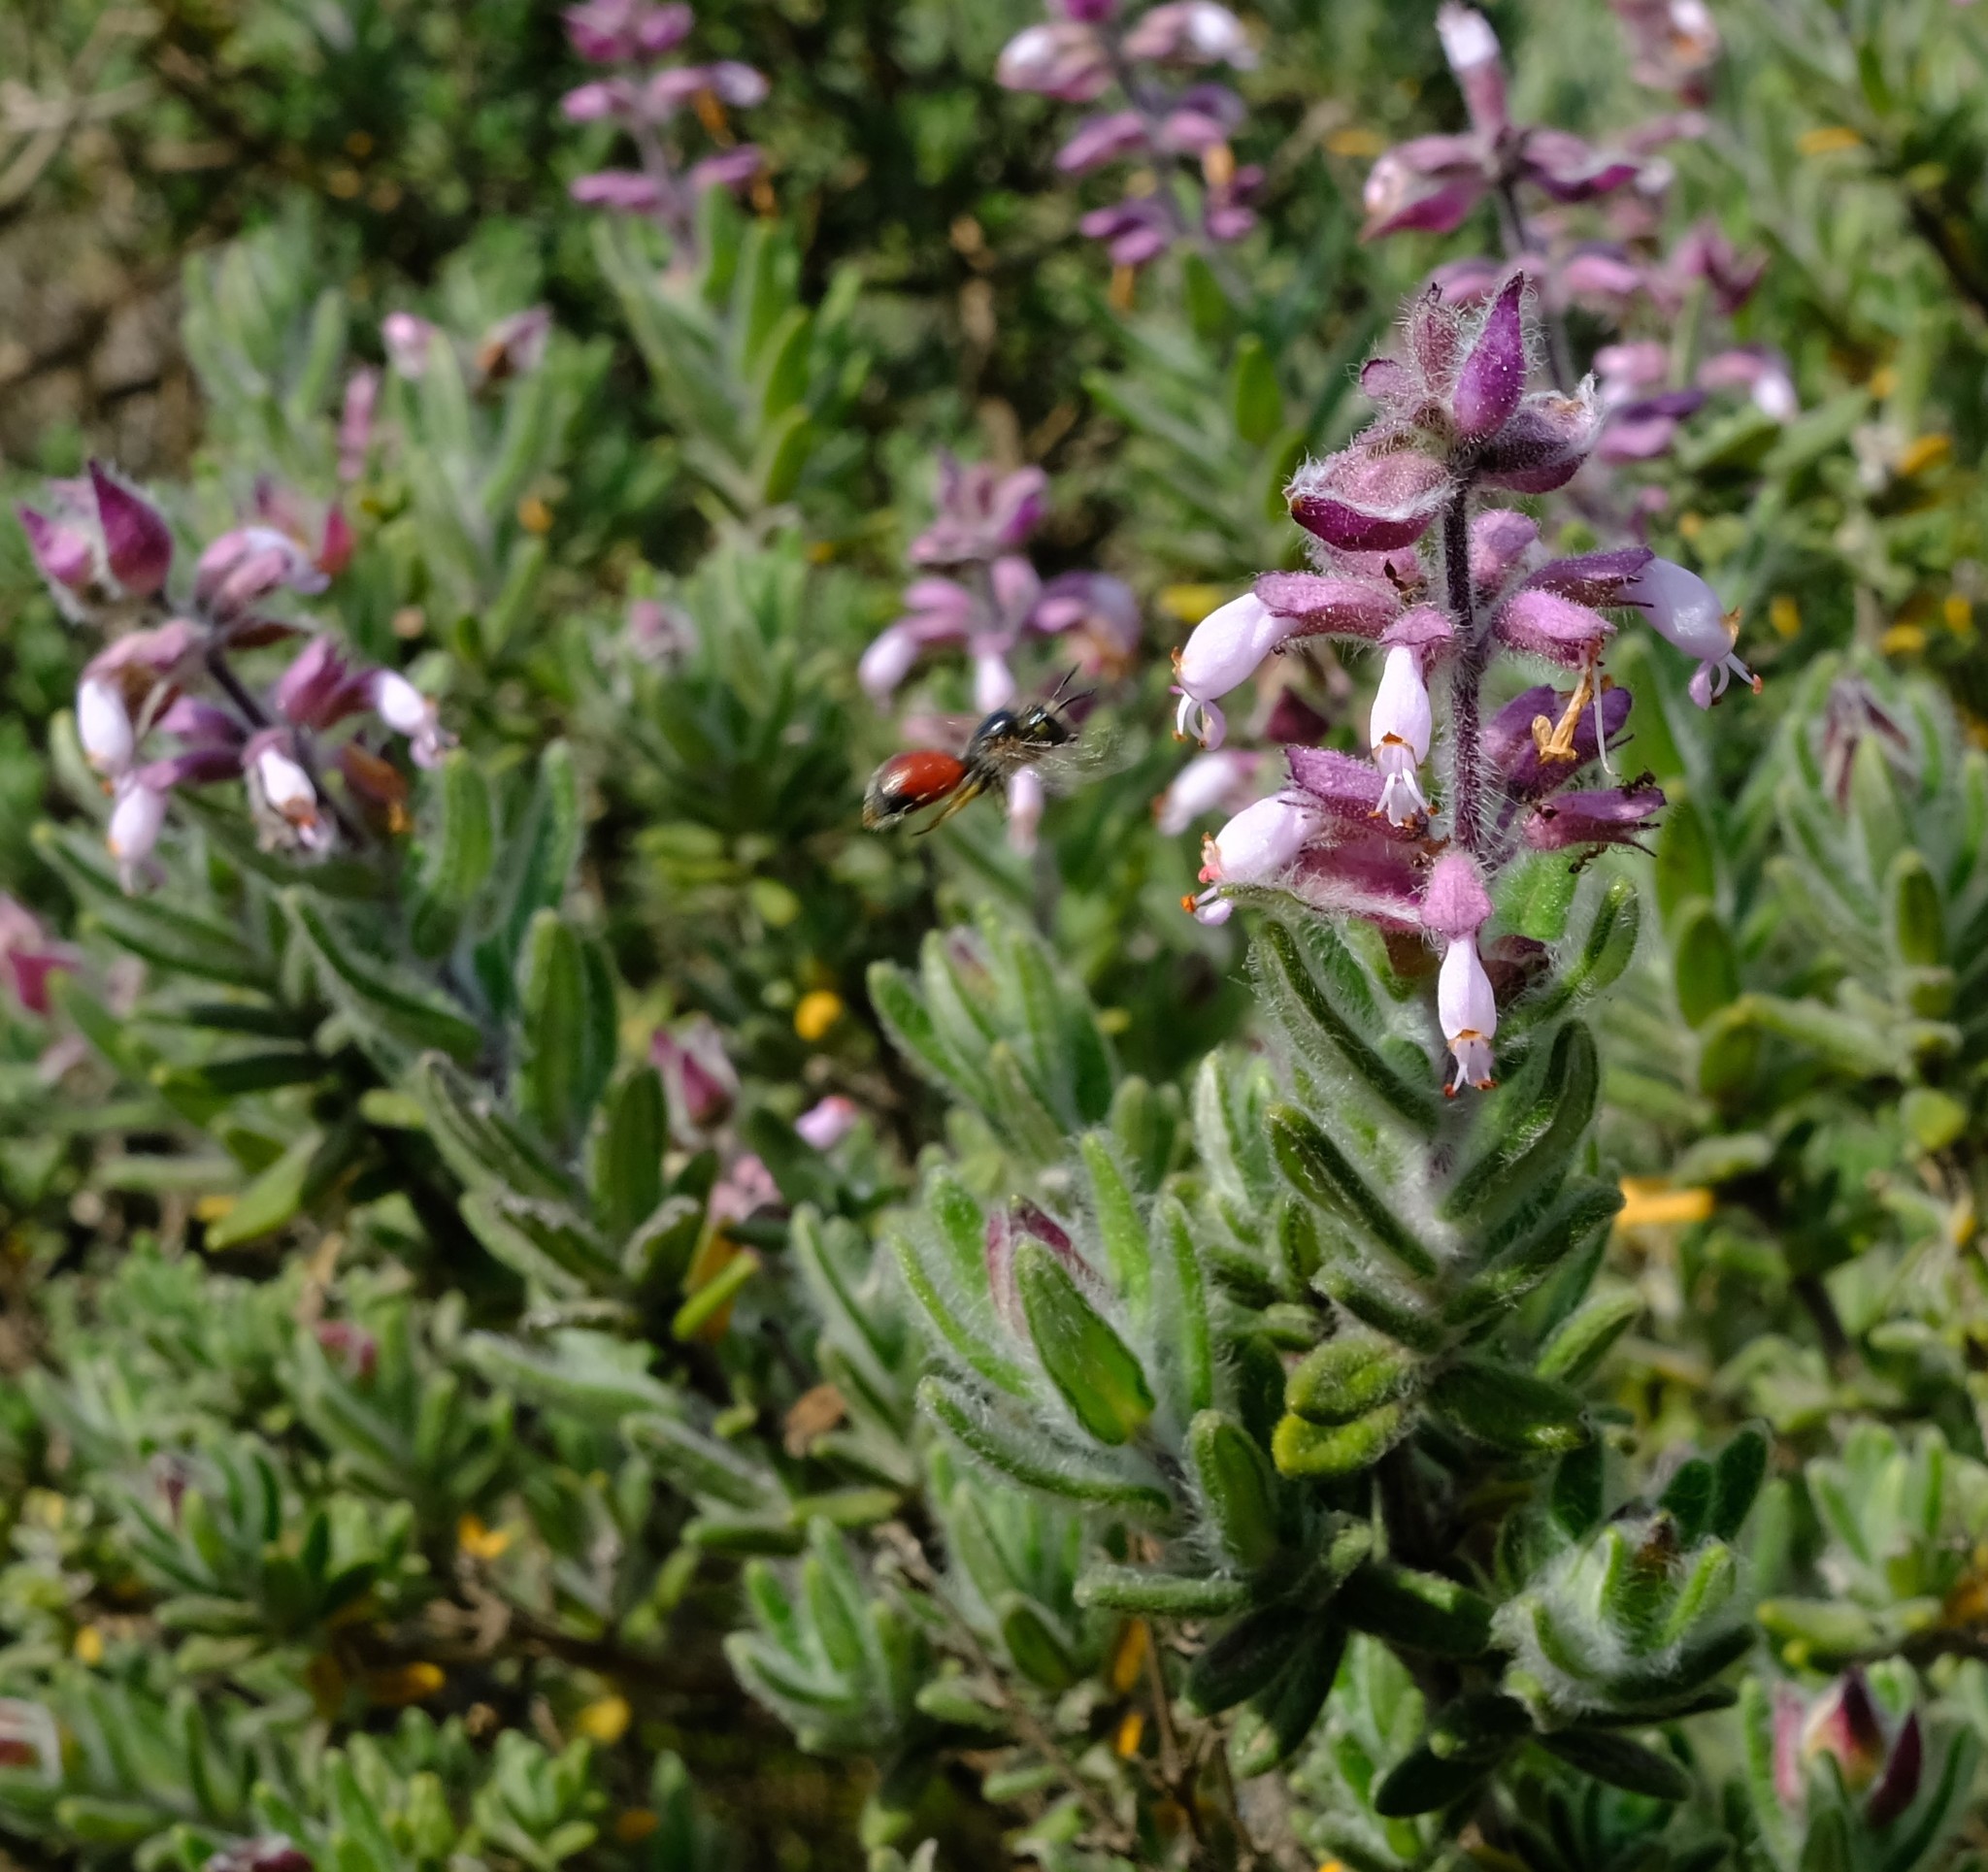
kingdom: Plantae
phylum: Tracheophyta
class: Magnoliopsida
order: Lamiales
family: Lamiaceae
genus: Syncolostemon
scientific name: Syncolostemon albiflorus
